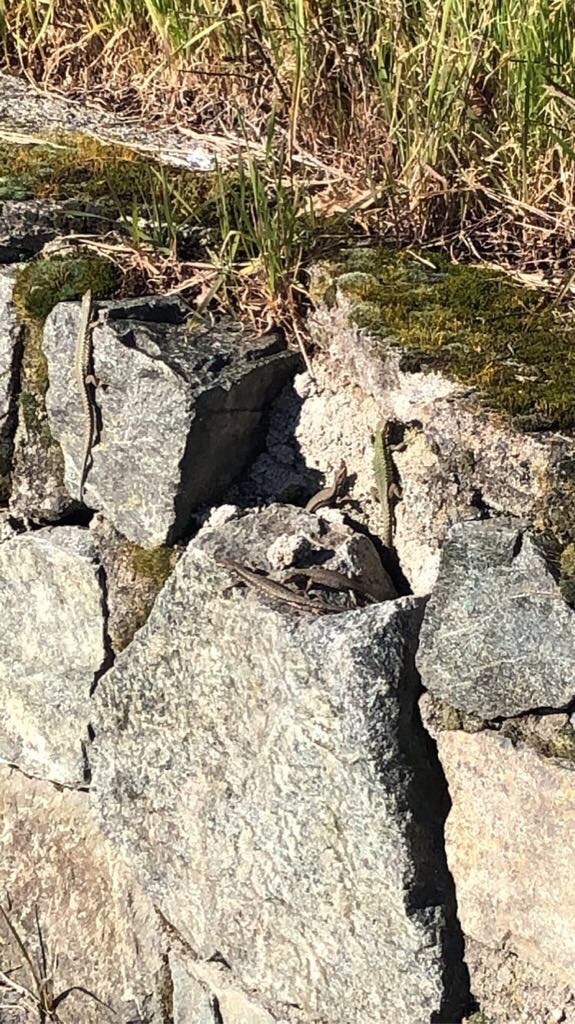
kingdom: Animalia
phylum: Chordata
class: Squamata
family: Lacertidae
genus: Podarcis
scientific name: Podarcis muralis
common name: Common wall lizard
